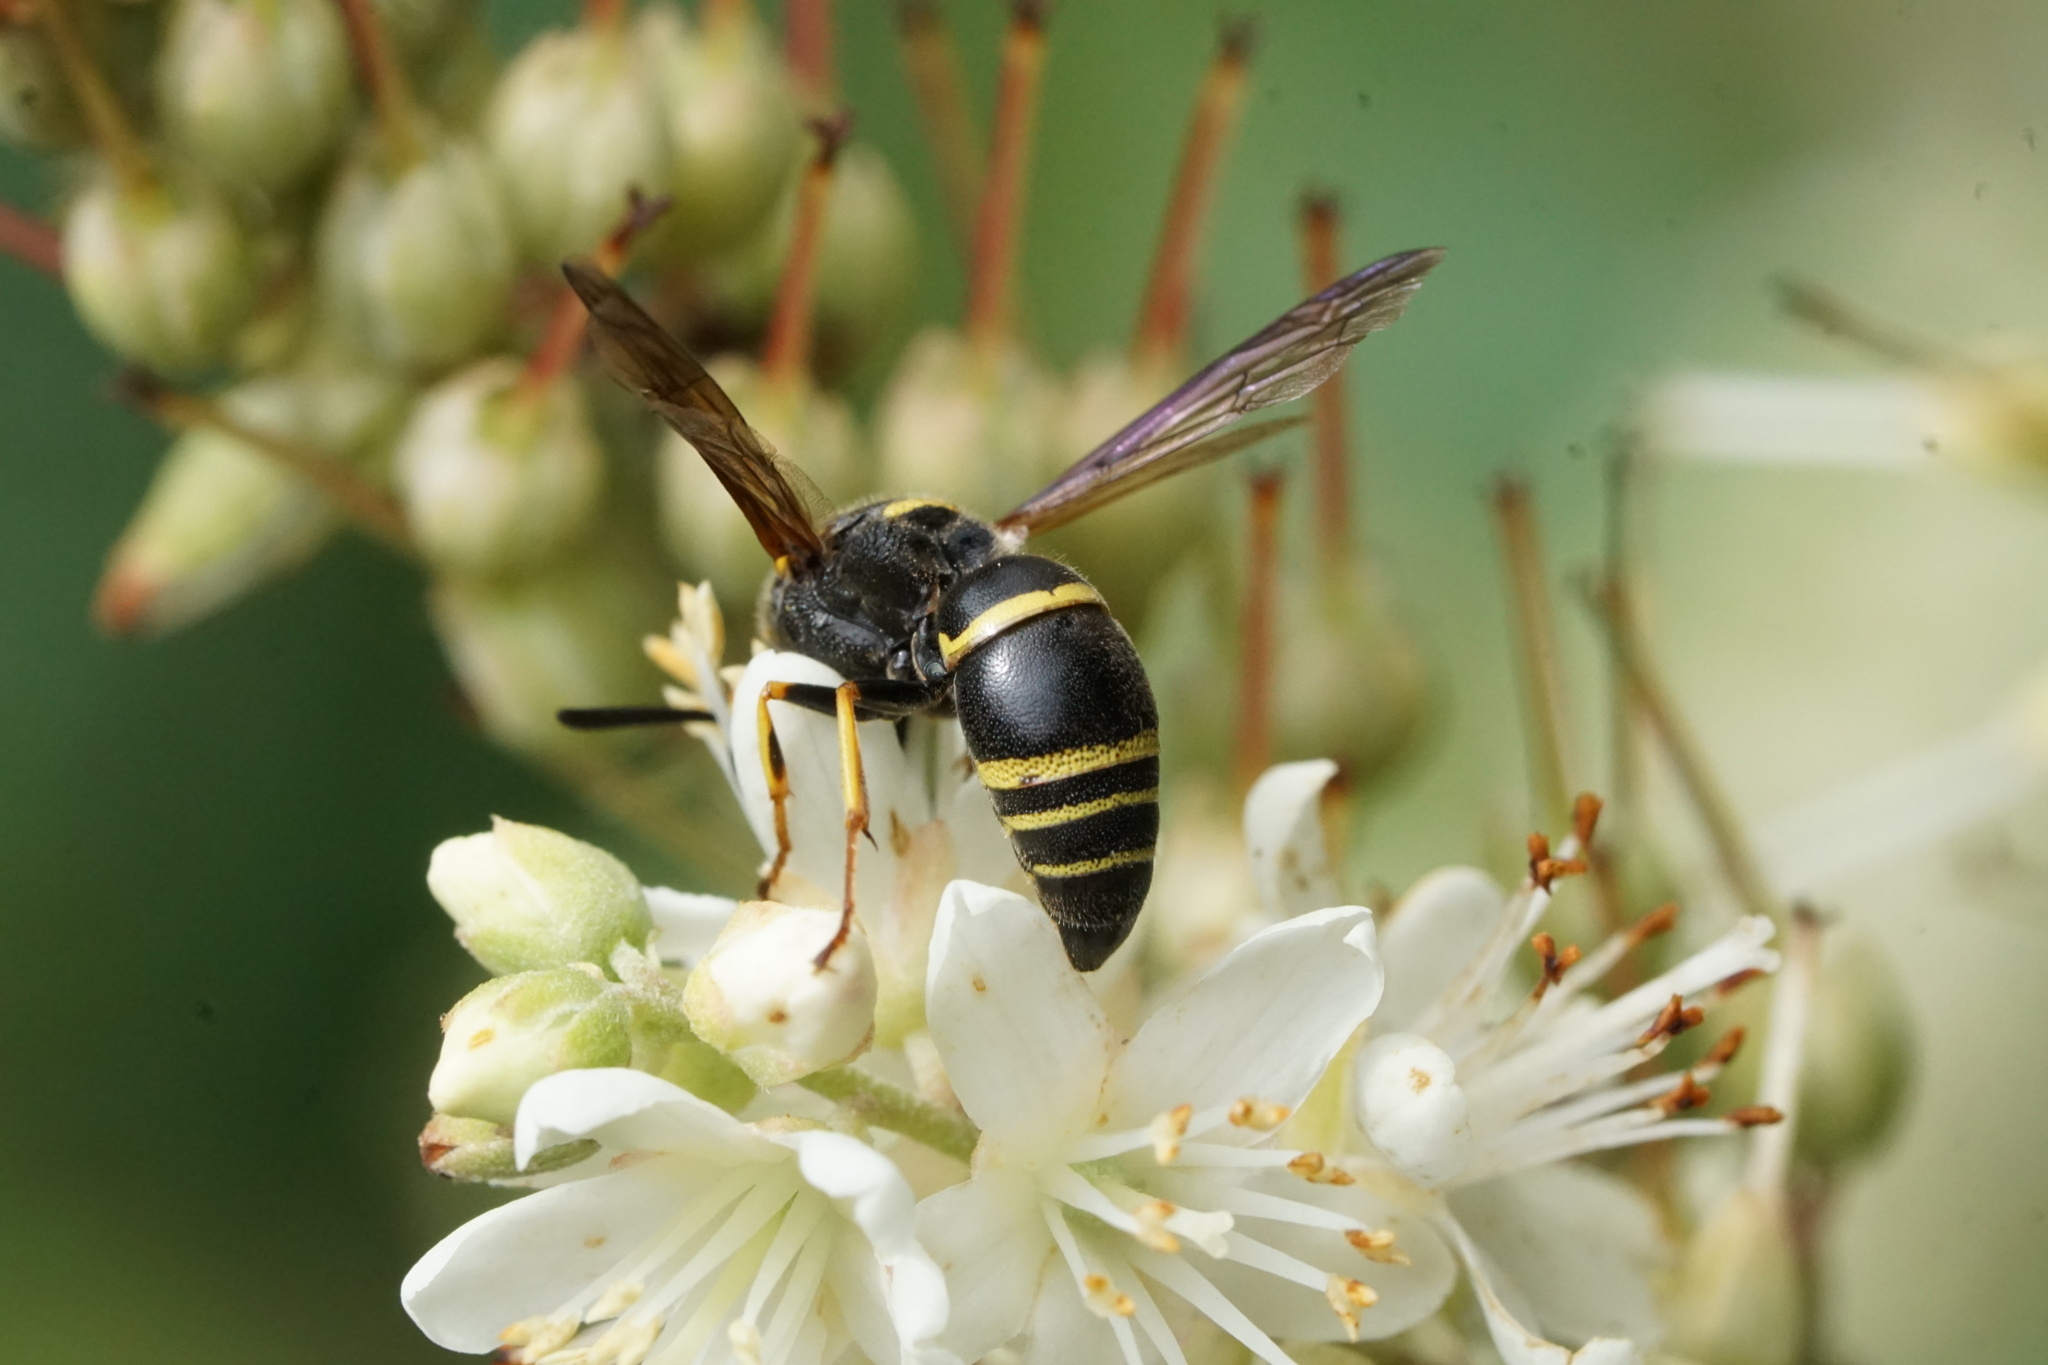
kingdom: Animalia
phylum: Arthropoda
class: Insecta
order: Hymenoptera
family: Eumenidae
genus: Euodynerus
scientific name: Euodynerus foraminatus
